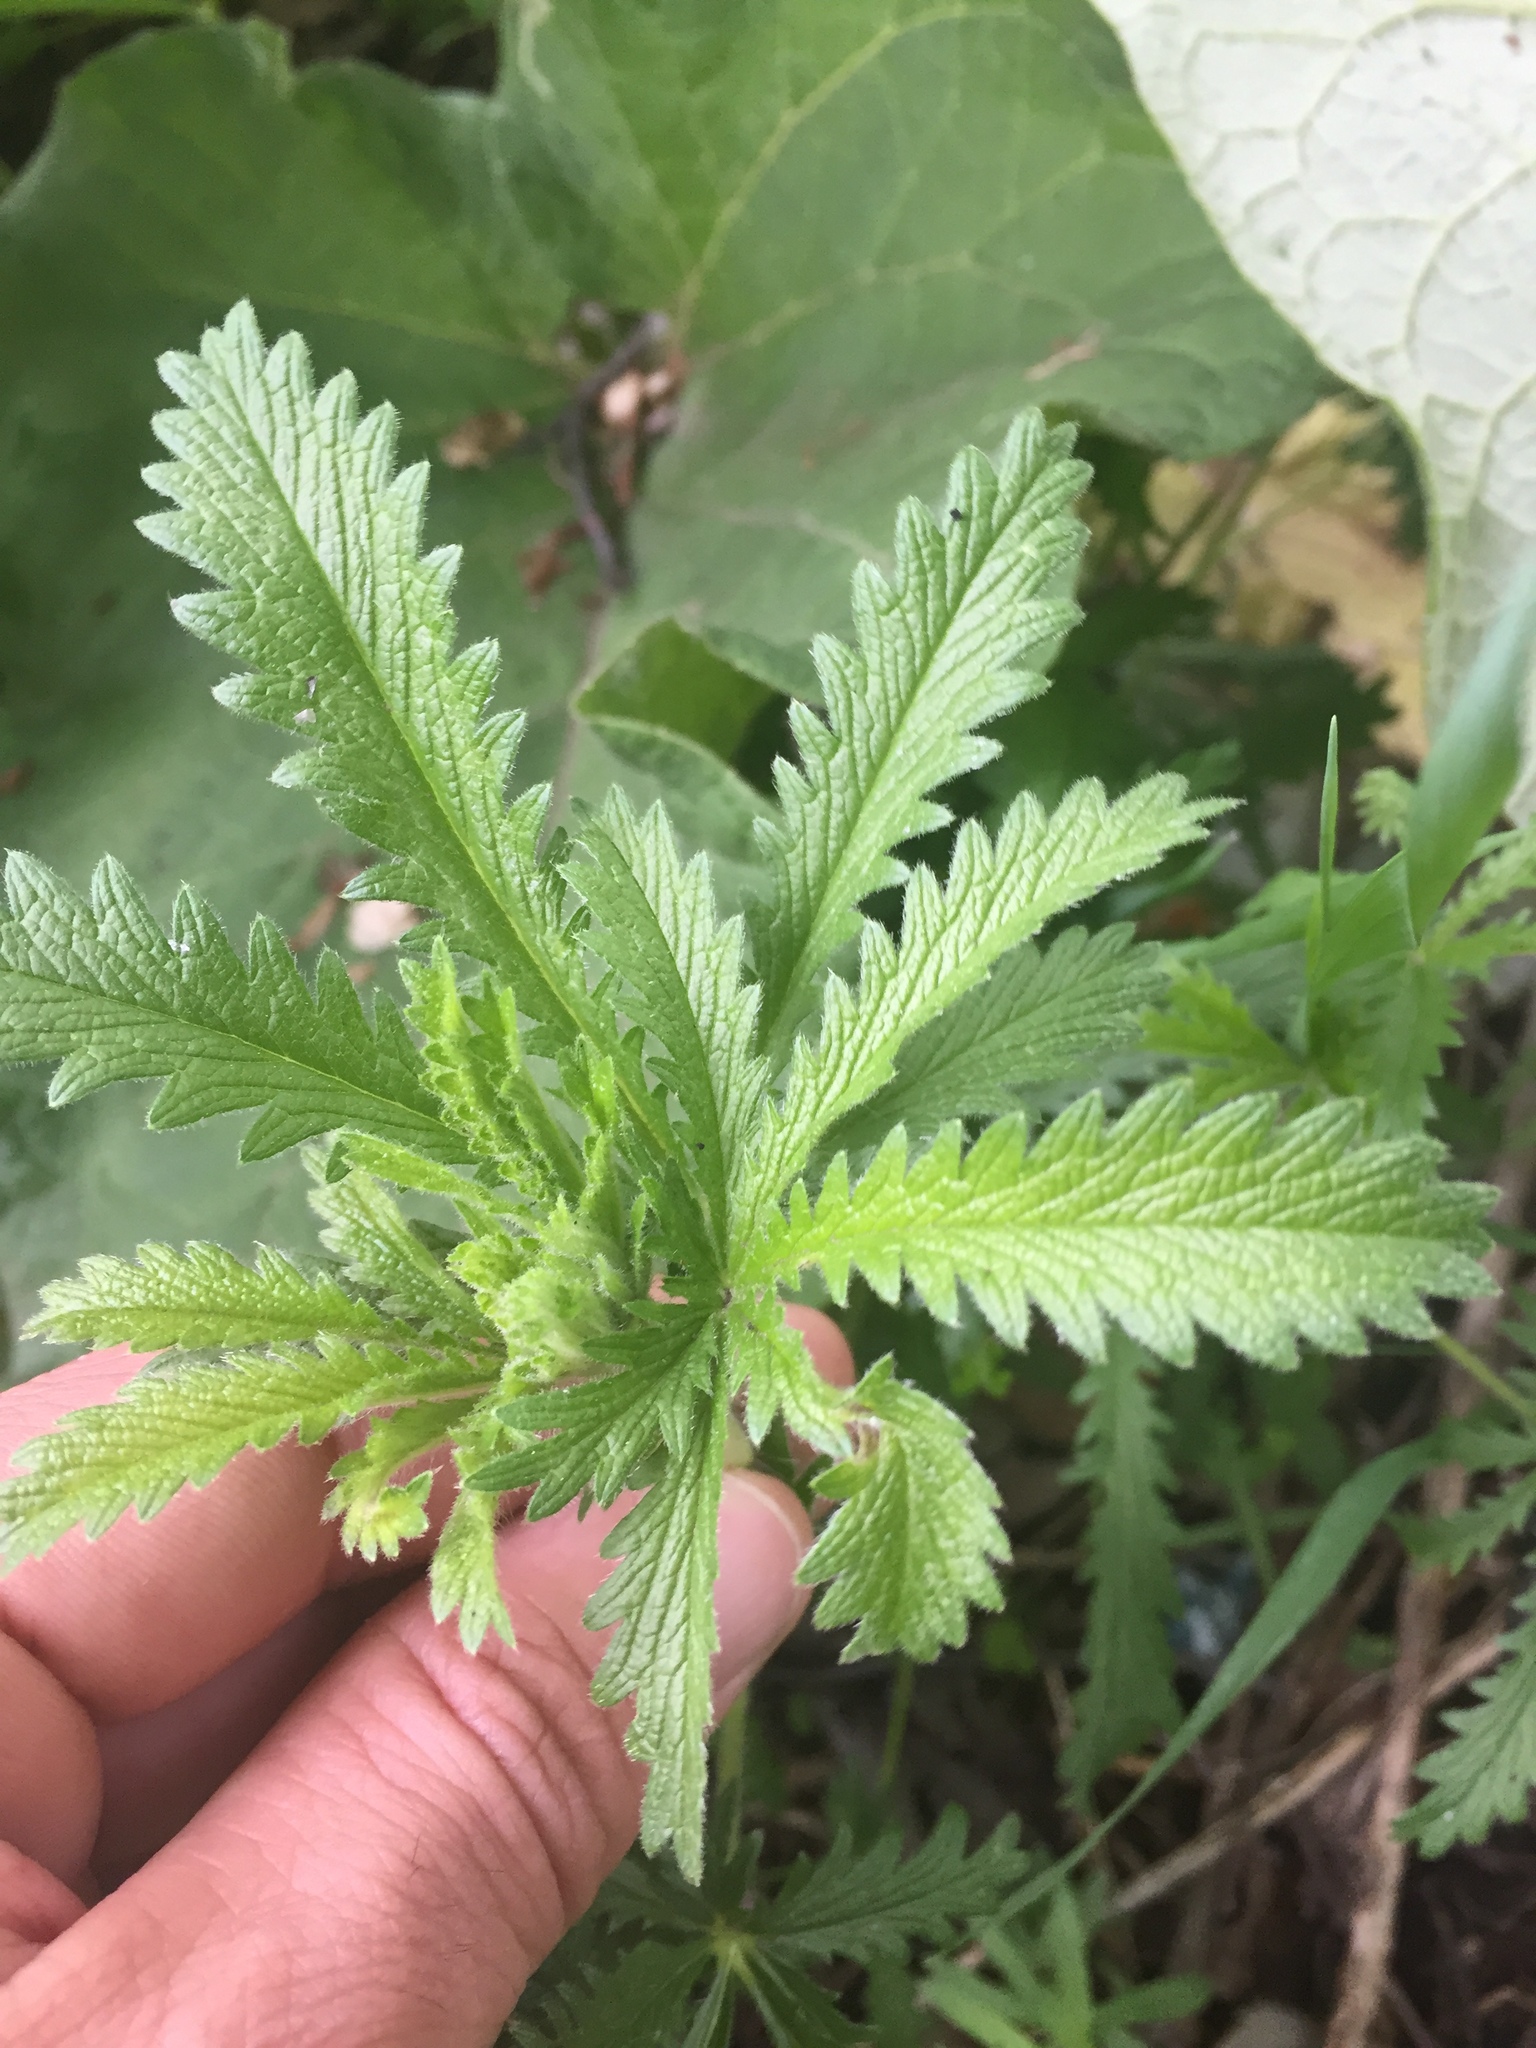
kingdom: Plantae
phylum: Tracheophyta
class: Magnoliopsida
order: Rosales
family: Rosaceae
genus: Potentilla
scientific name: Potentilla recta
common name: Sulphur cinquefoil
